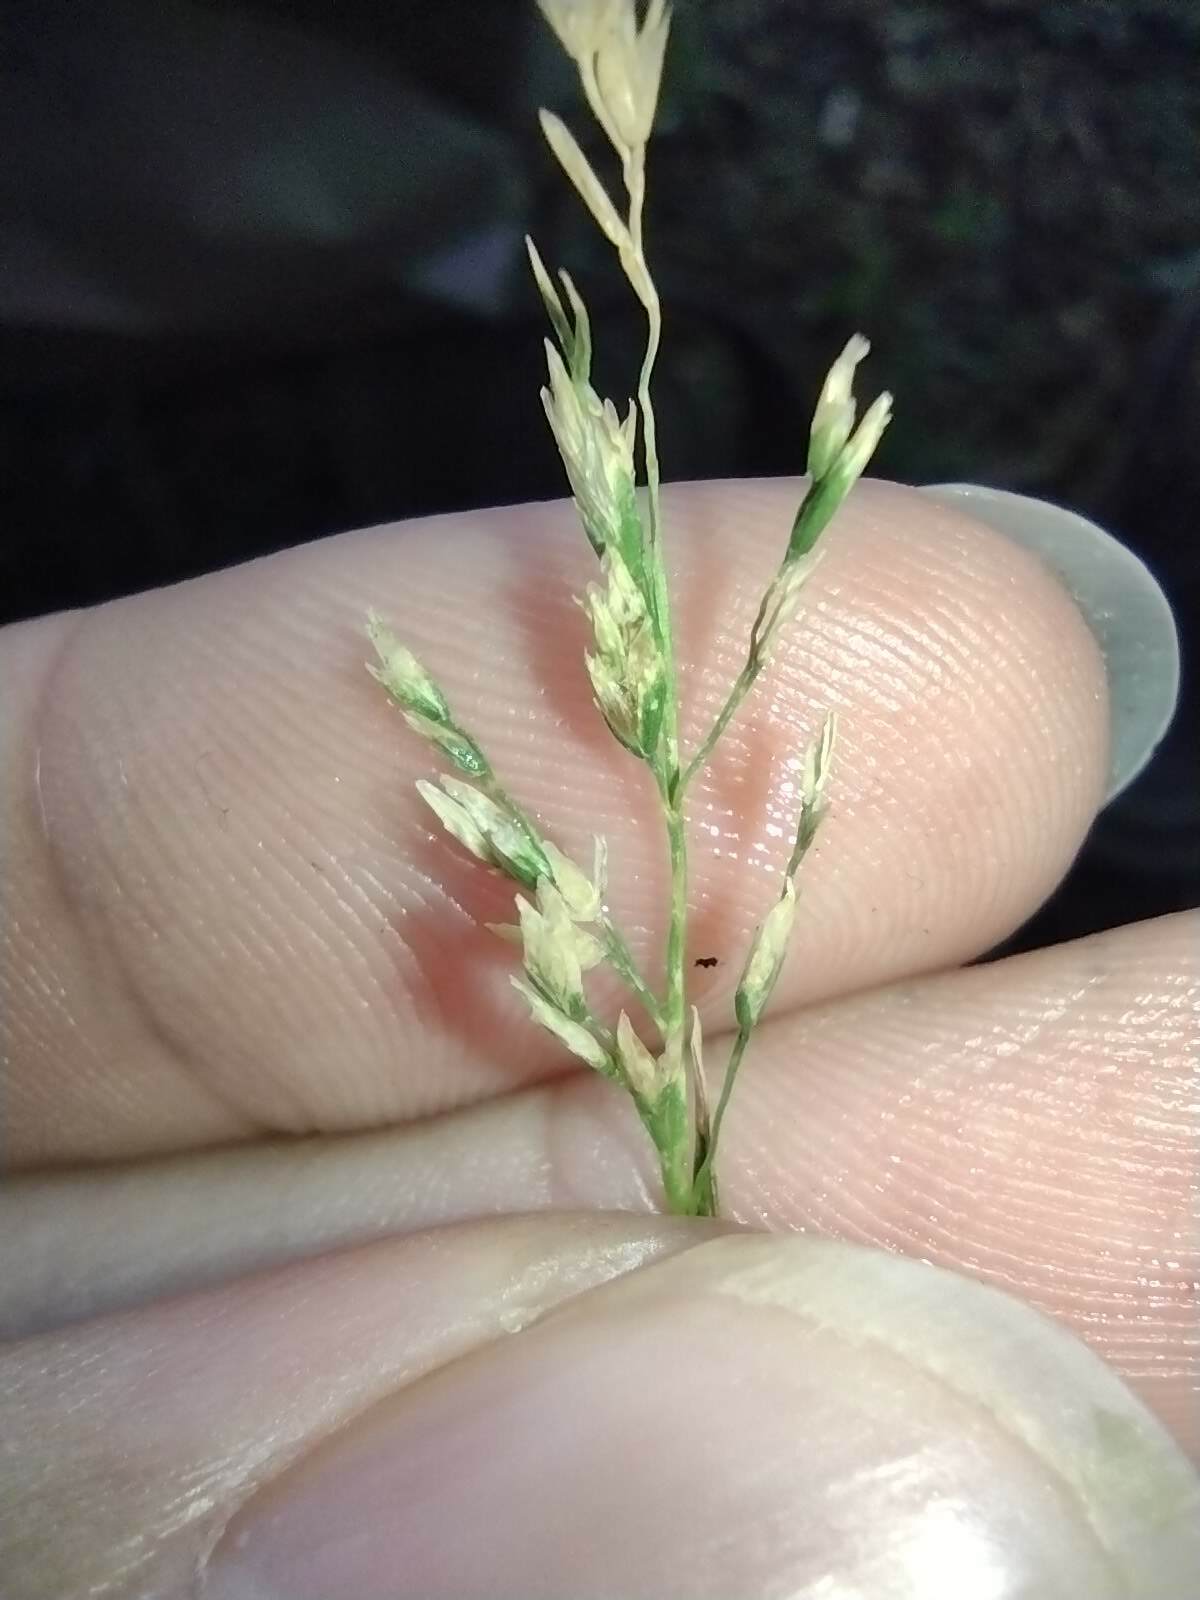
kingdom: Plantae
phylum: Tracheophyta
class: Liliopsida
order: Poales
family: Poaceae
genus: Poa
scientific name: Poa annua
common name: Annual bluegrass
